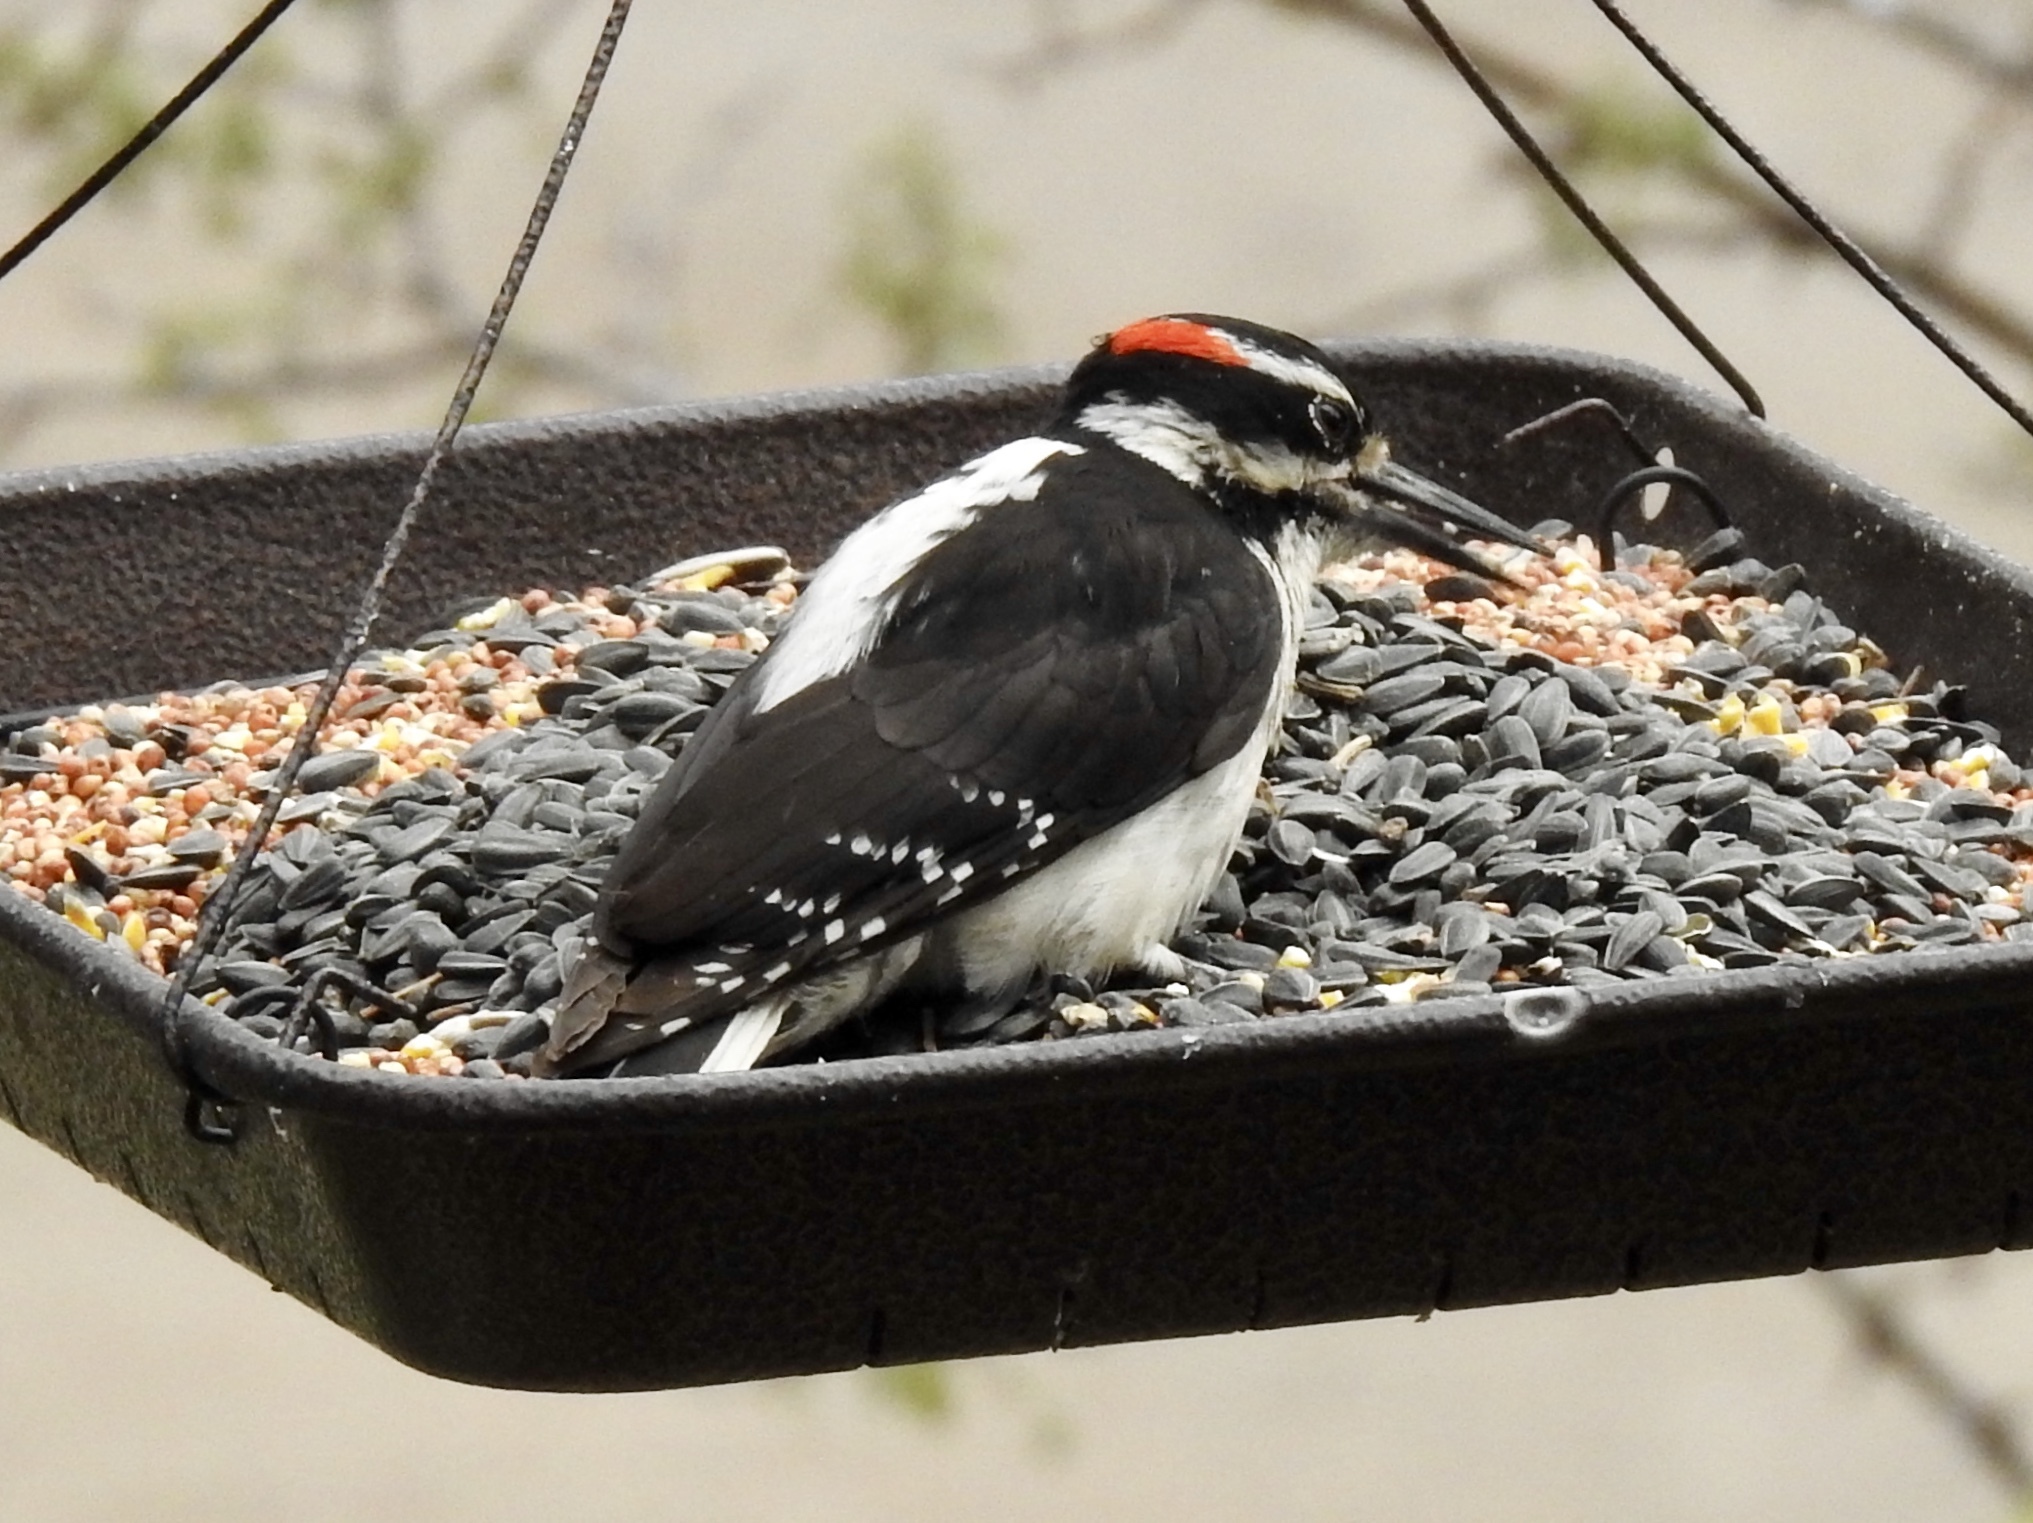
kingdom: Animalia
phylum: Chordata
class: Aves
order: Piciformes
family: Picidae
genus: Leuconotopicus
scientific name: Leuconotopicus villosus
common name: Hairy woodpecker
